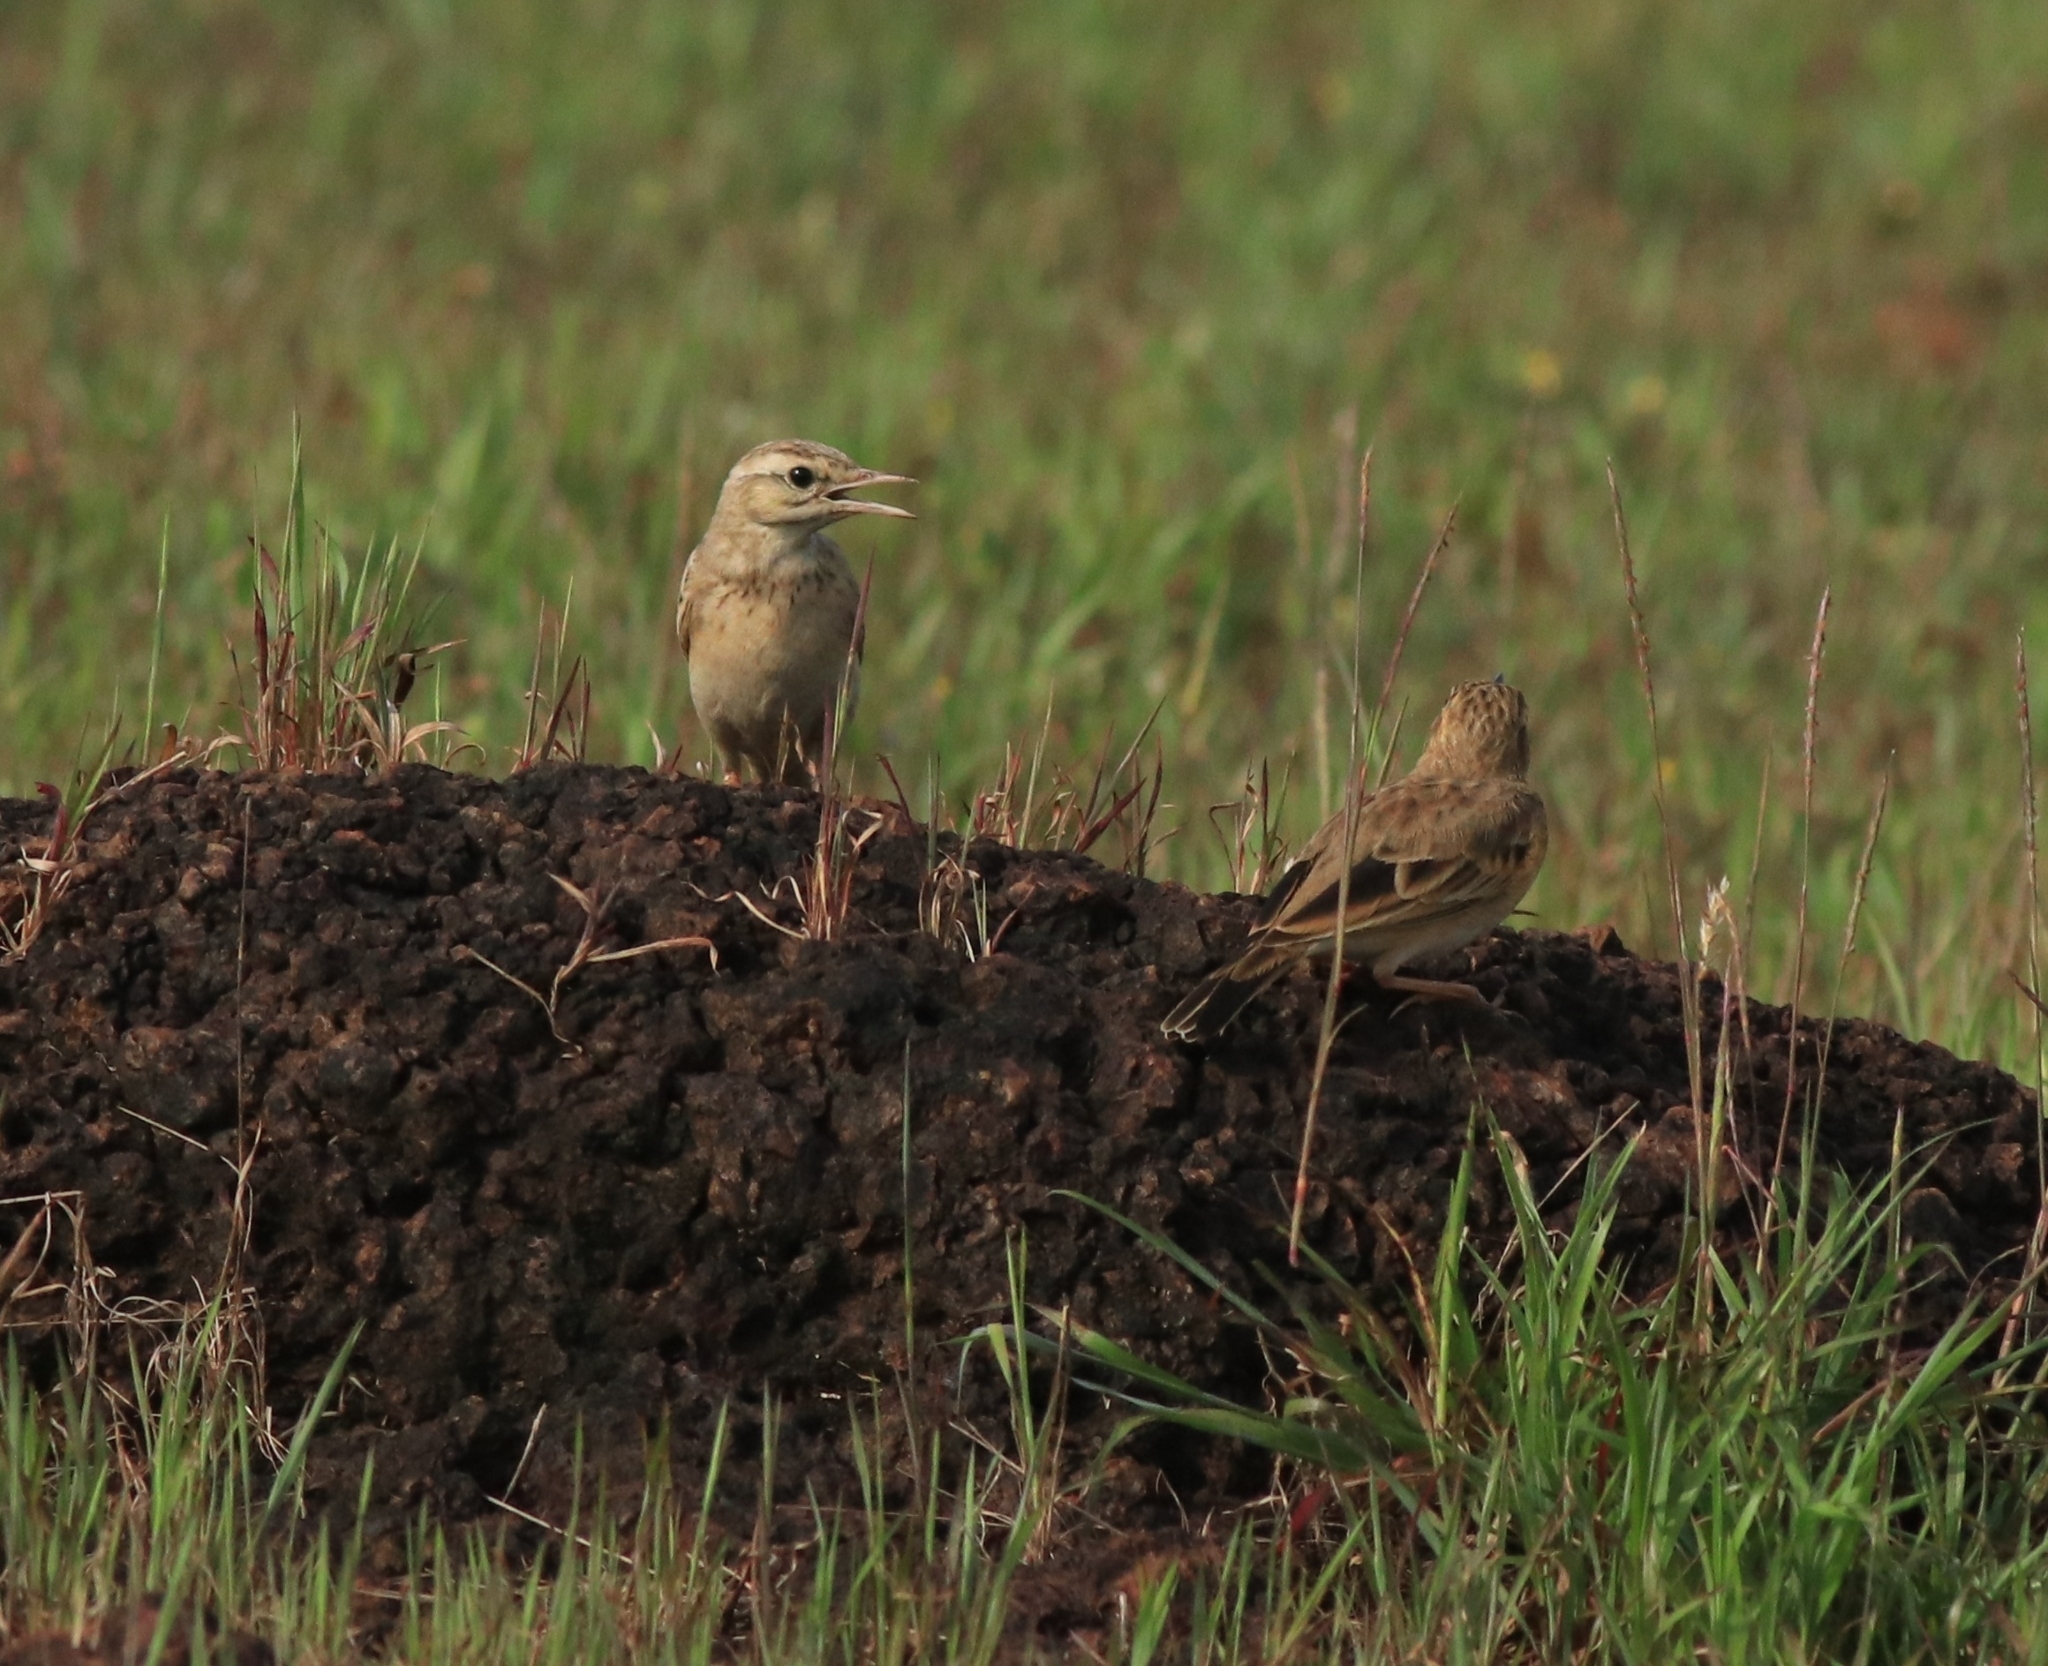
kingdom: Animalia
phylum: Chordata
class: Aves
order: Passeriformes
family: Motacillidae
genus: Anthus
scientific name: Anthus campestris
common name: Tawny pipit
